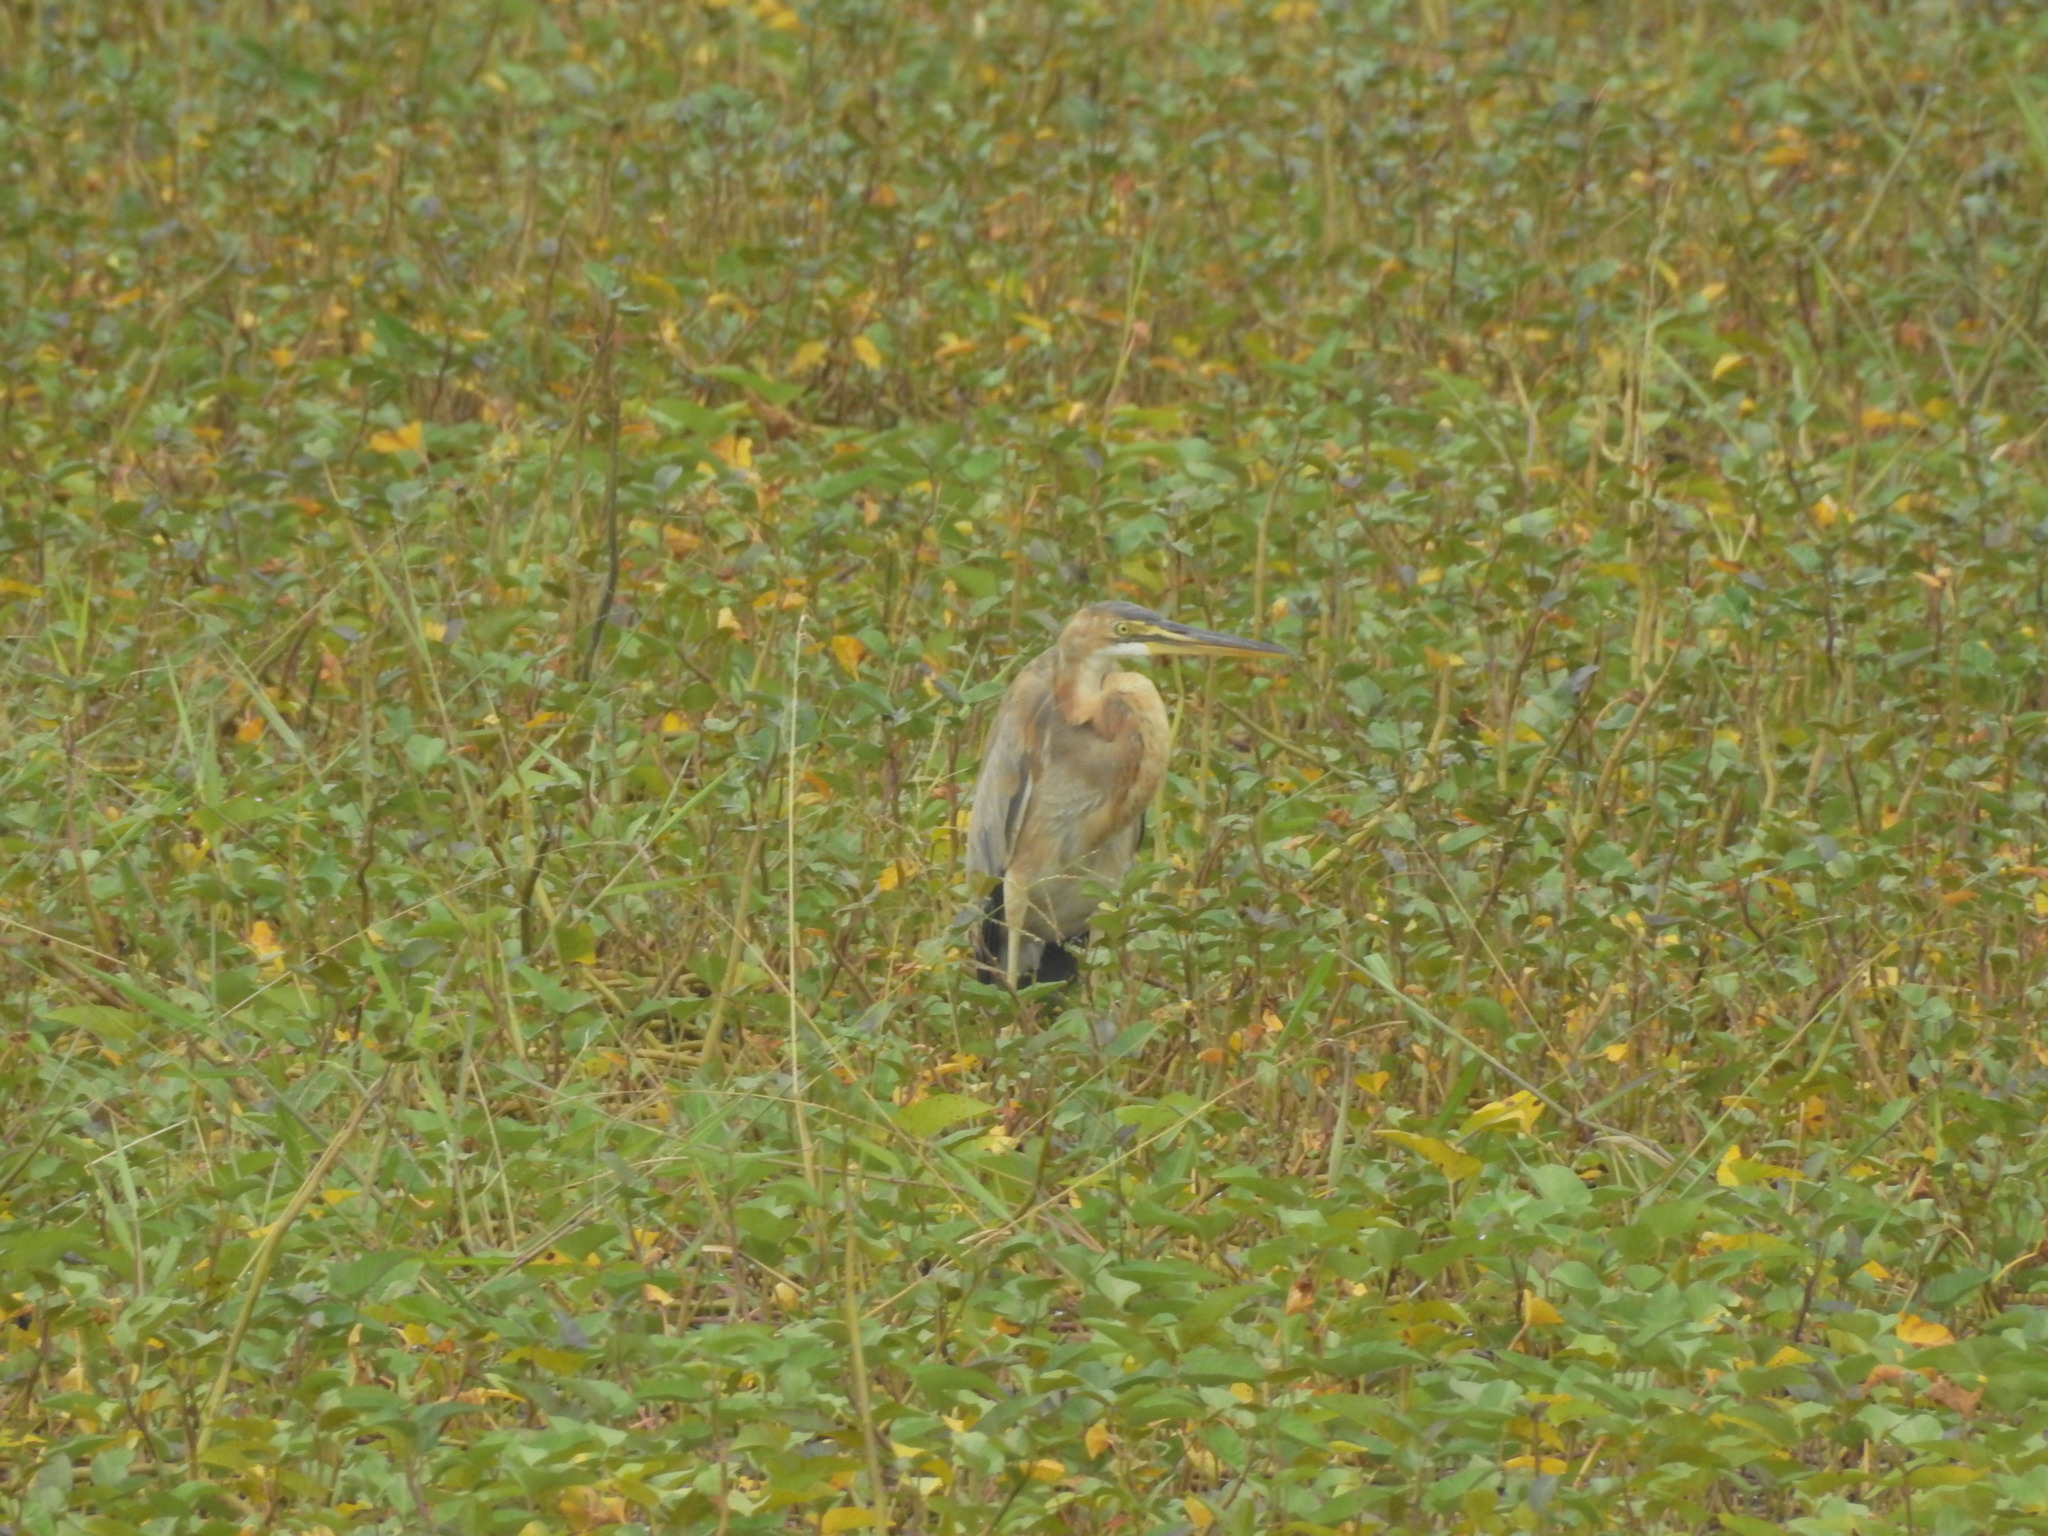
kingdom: Animalia
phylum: Chordata
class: Aves
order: Pelecaniformes
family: Ardeidae
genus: Ardea
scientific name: Ardea purpurea
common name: Purple heron
